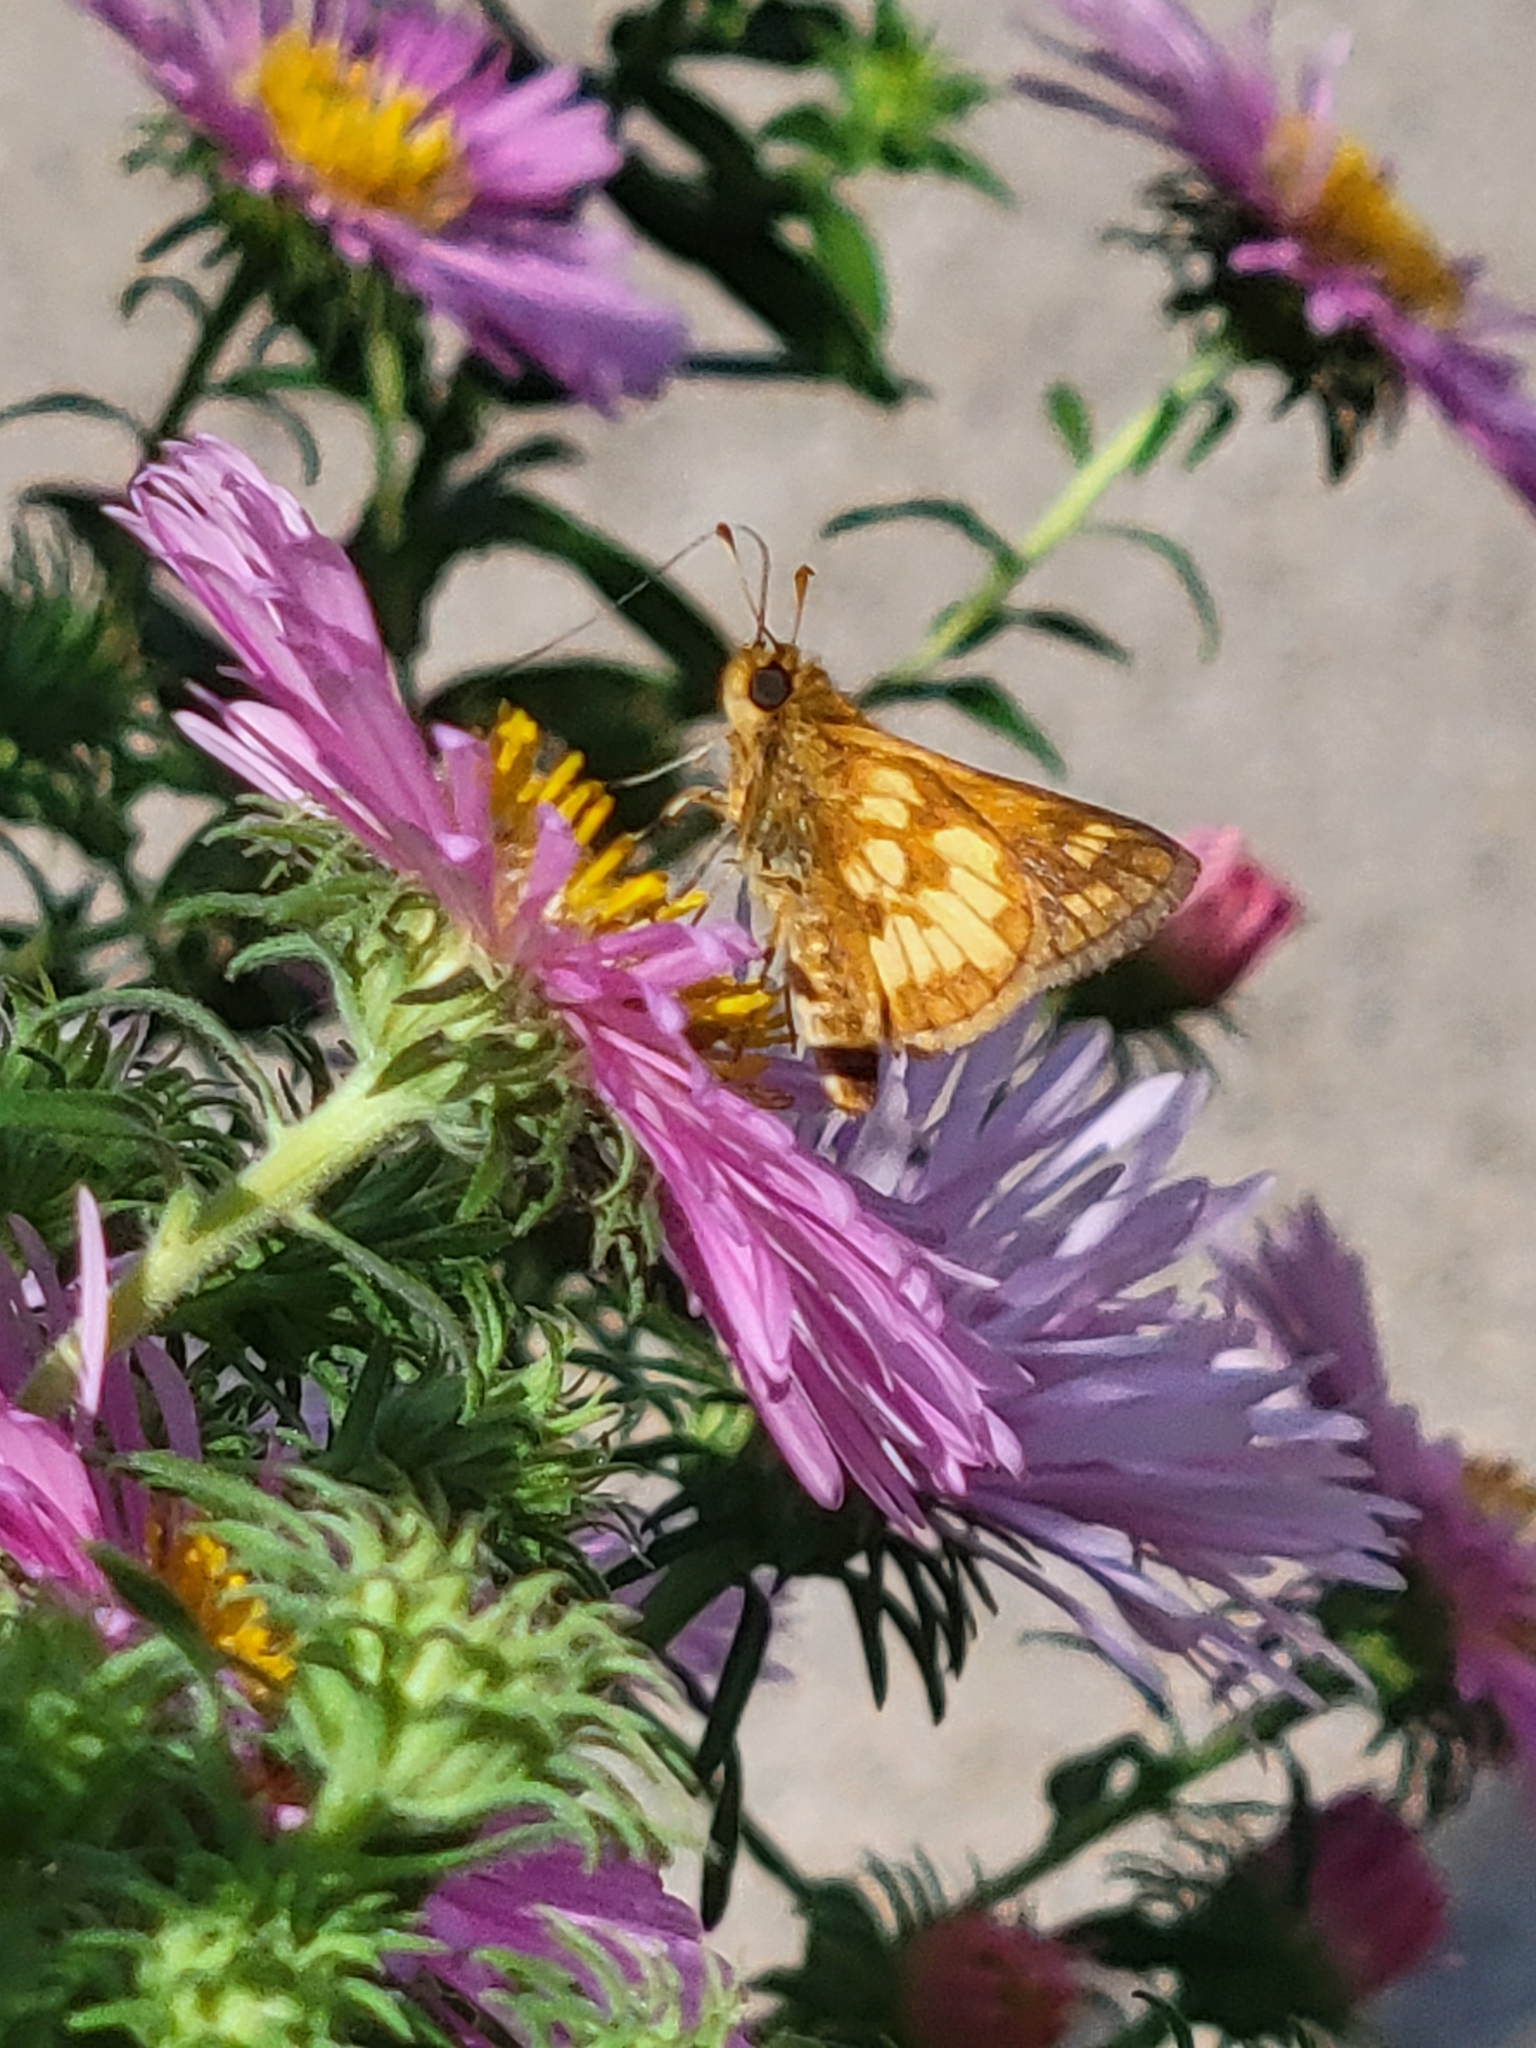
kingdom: Animalia
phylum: Arthropoda
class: Insecta
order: Lepidoptera
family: Hesperiidae
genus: Polites
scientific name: Polites coras
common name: Peck's skipper
